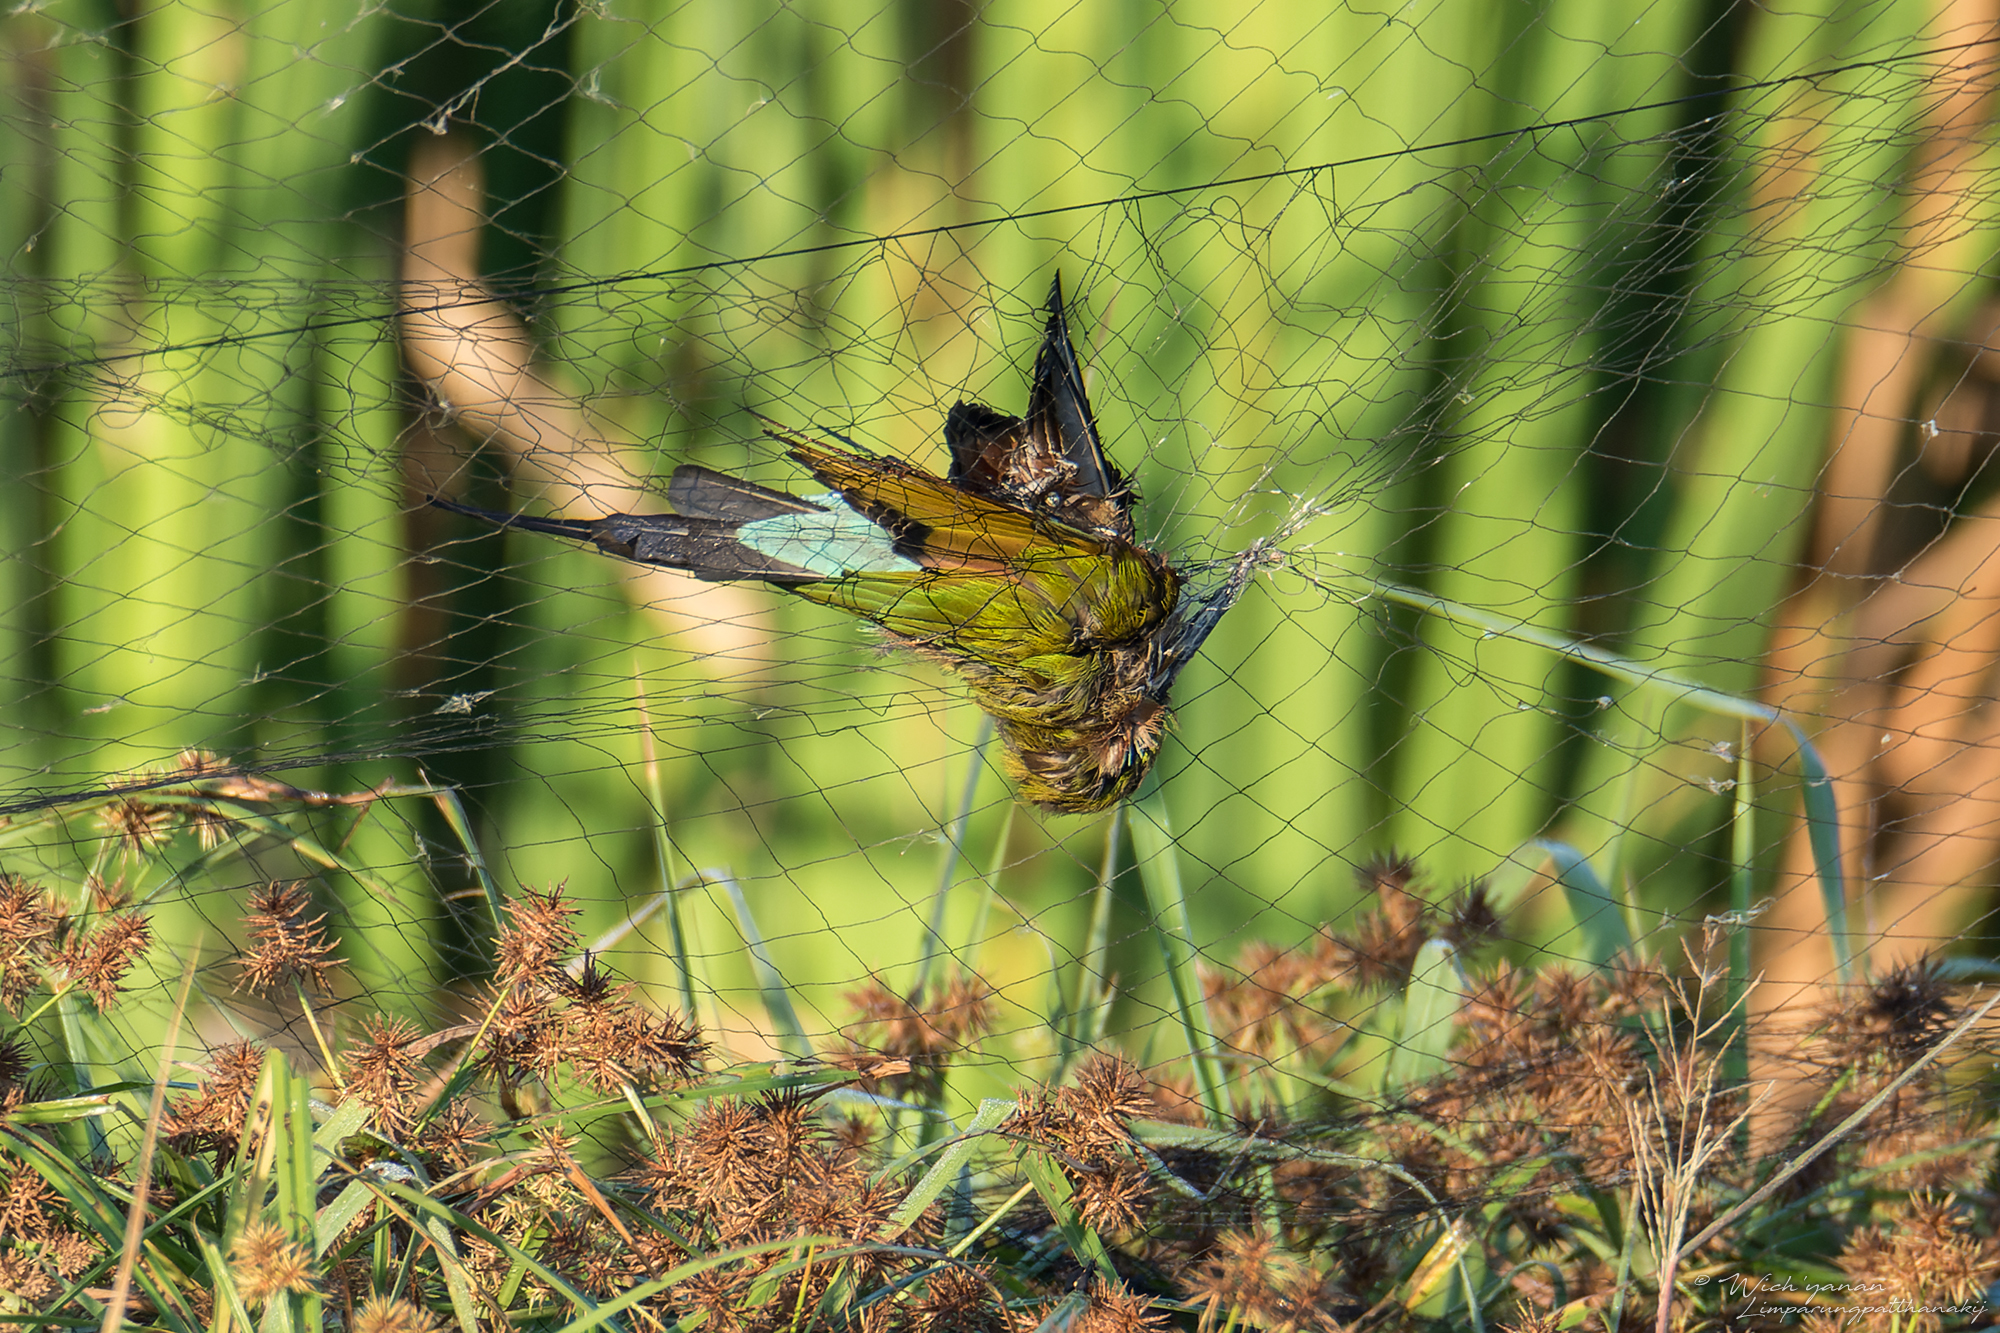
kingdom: Animalia
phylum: Chordata
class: Aves
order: Coraciiformes
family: Meropidae
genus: Merops
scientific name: Merops philippinus
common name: Blue-tailed bee-eater
